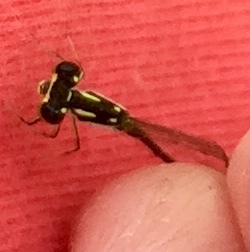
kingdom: Animalia
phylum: Arthropoda
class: Insecta
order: Odonata
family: Coenagrionidae
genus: Ischnura
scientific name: Ischnura posita
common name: Fragile forktail
